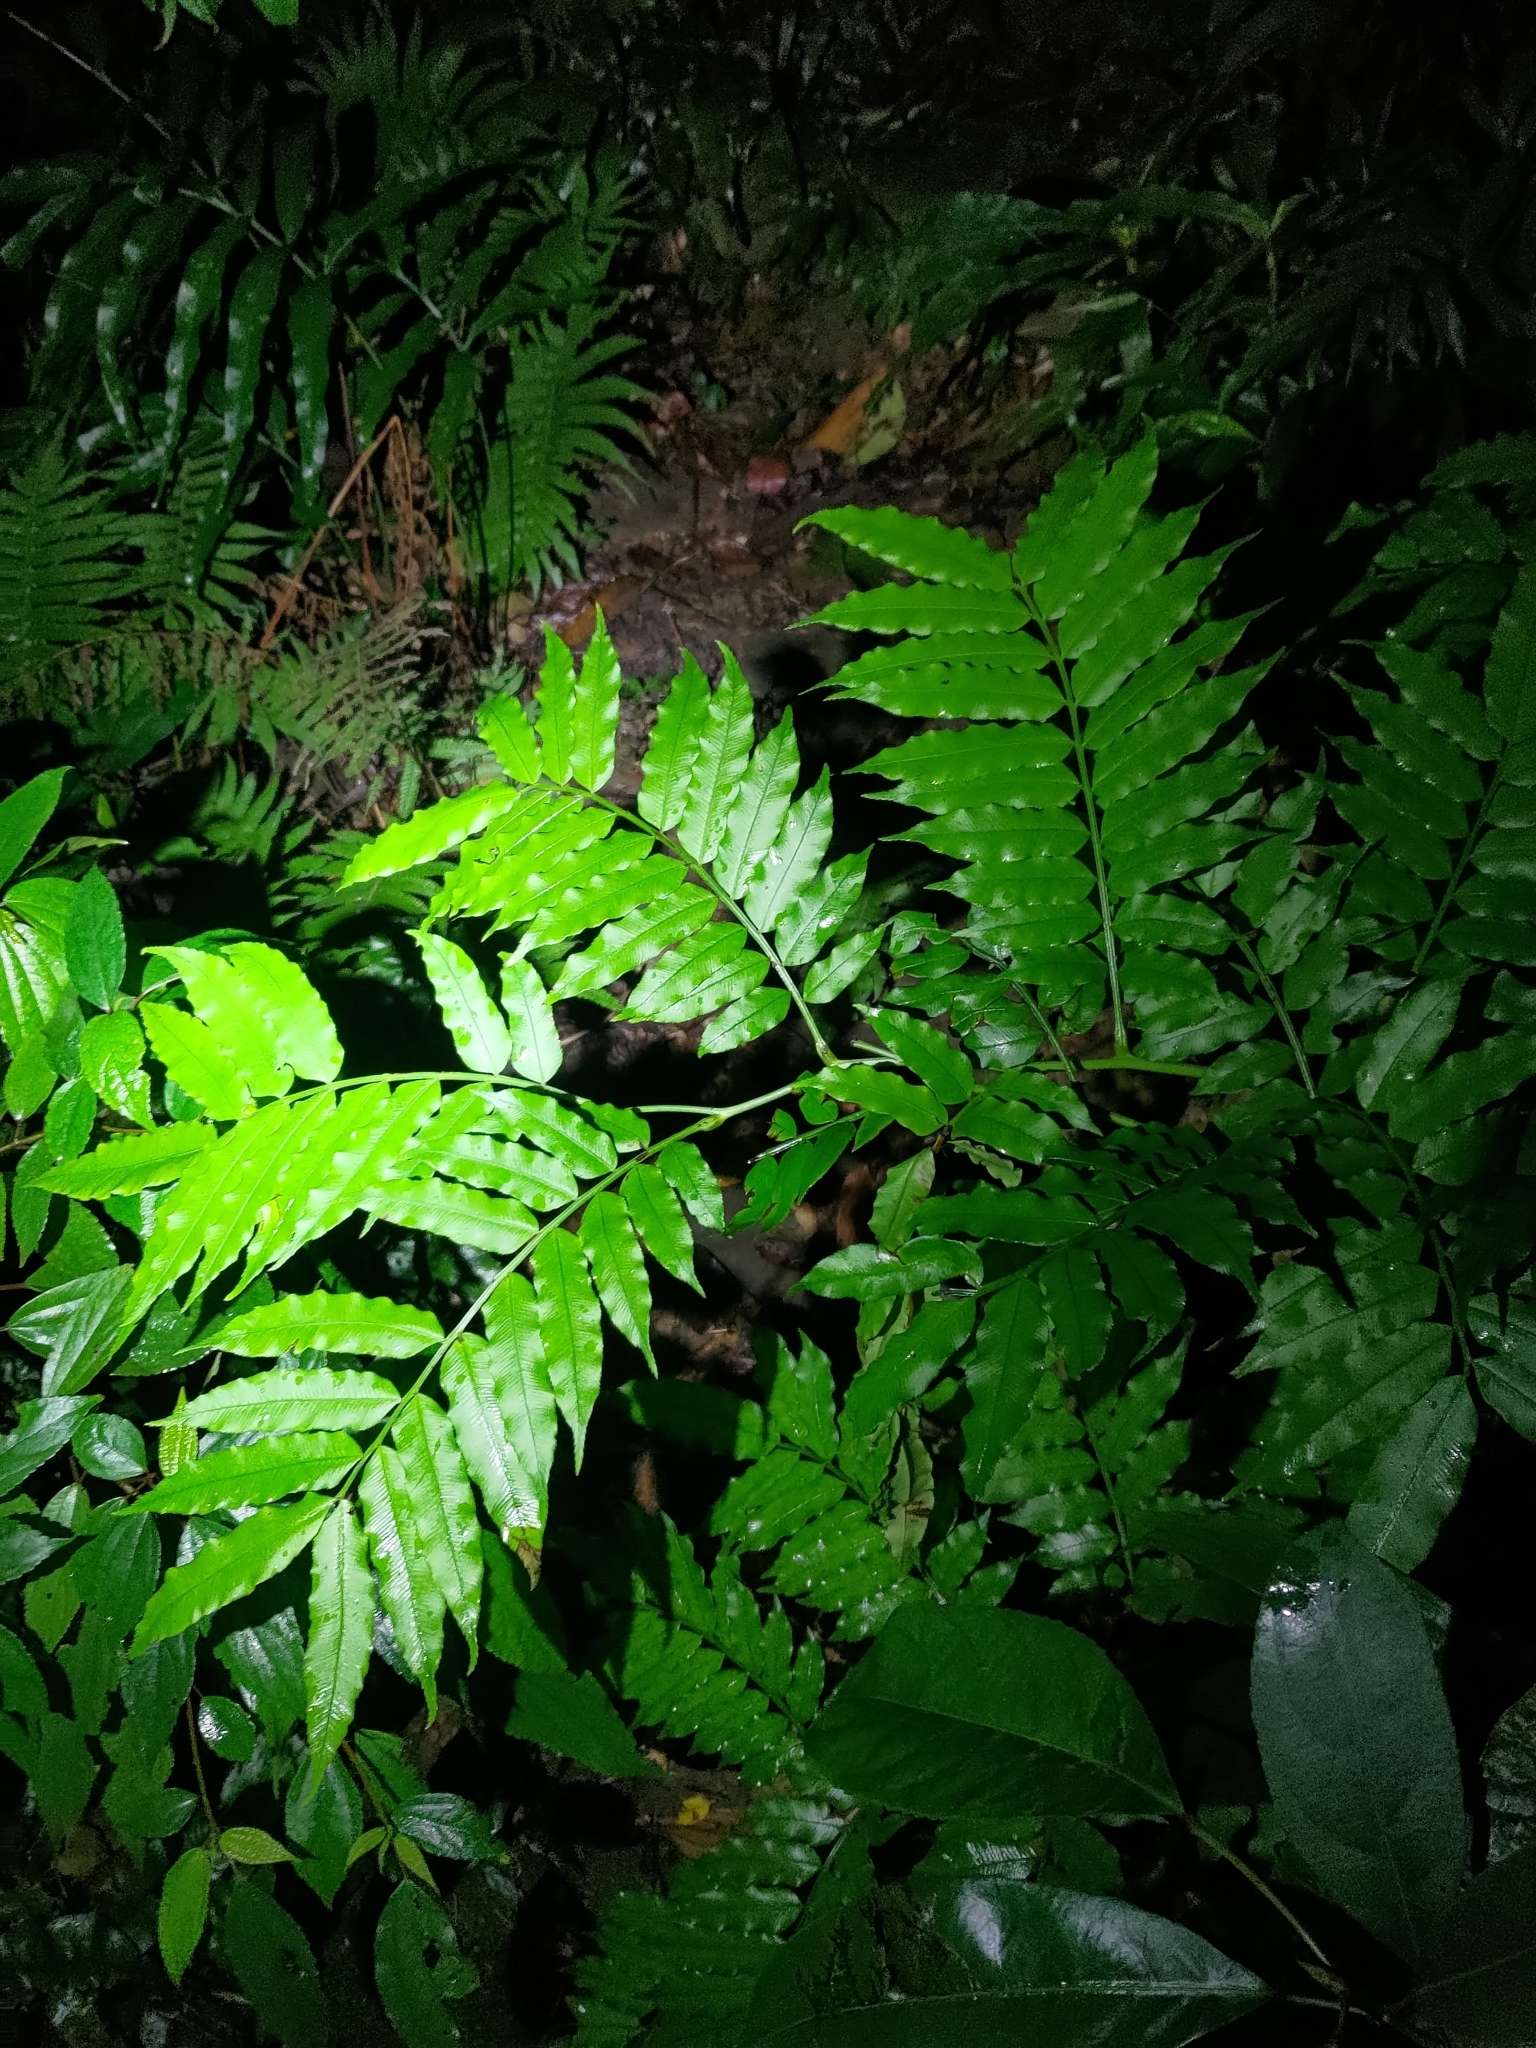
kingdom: Plantae
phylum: Tracheophyta
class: Polypodiopsida
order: Marattiales
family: Marattiaceae
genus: Angiopteris
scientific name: Angiopteris lygodiifolia
